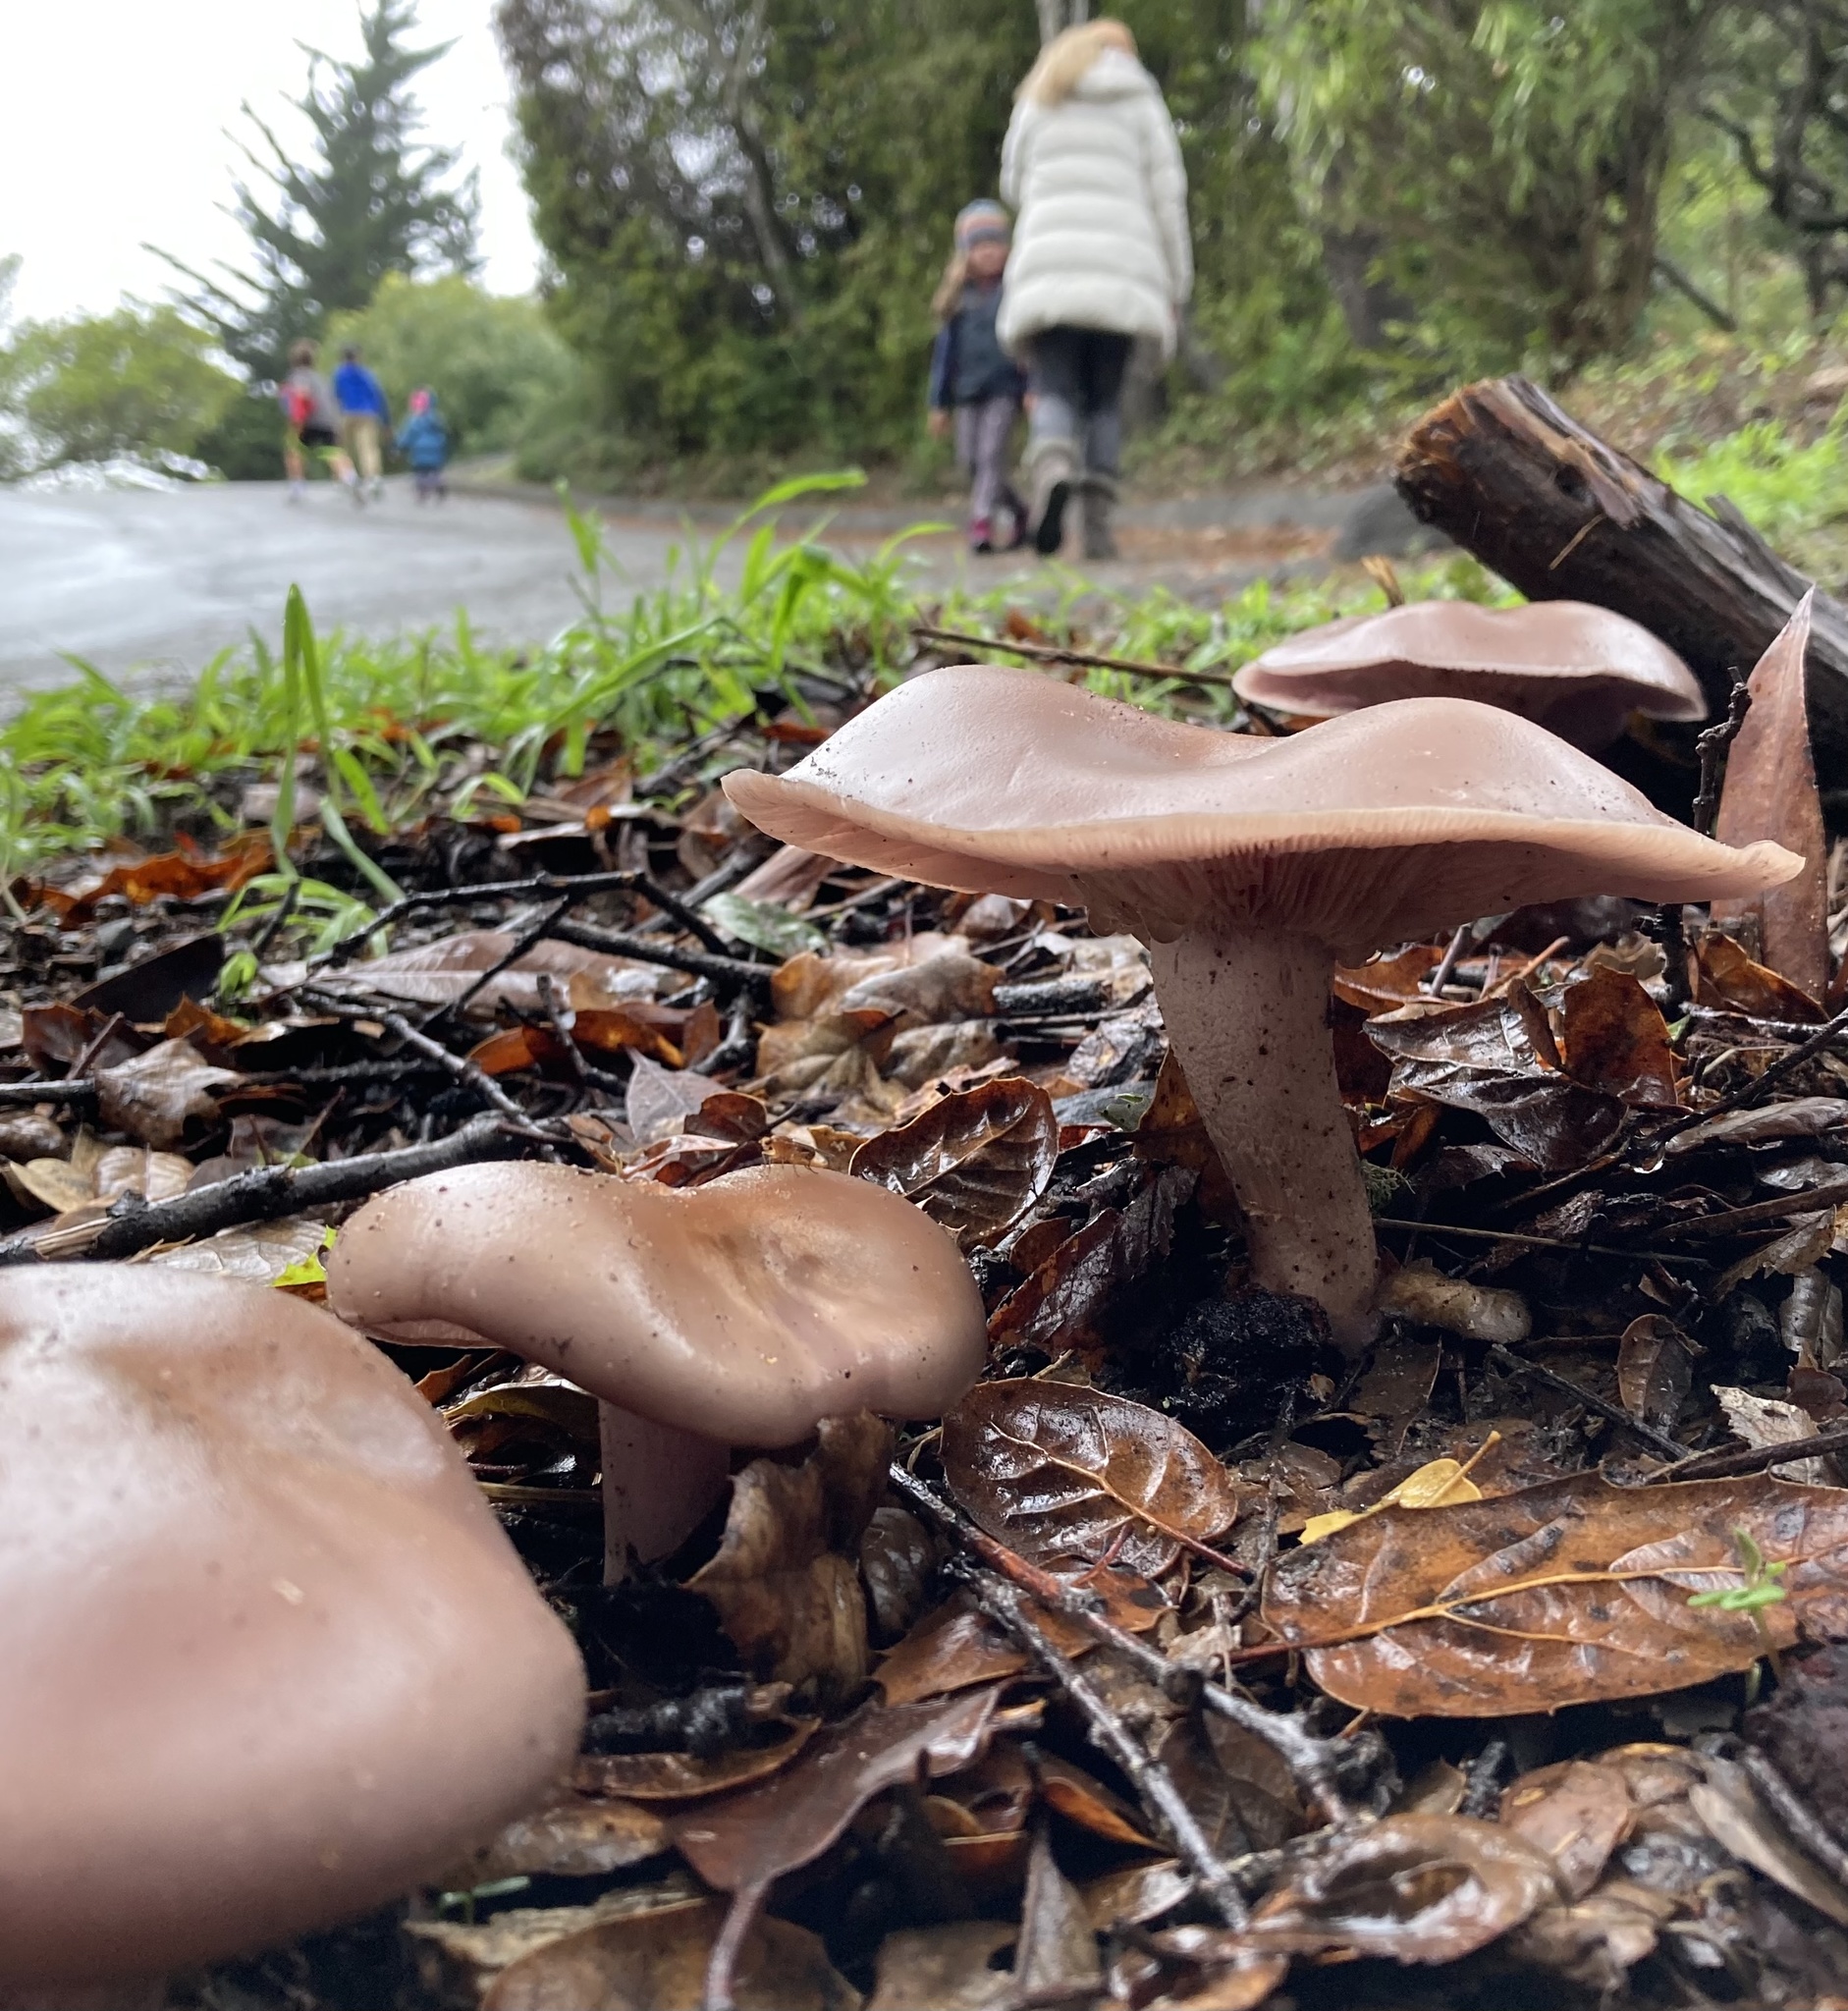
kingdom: Fungi
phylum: Basidiomycota
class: Agaricomycetes
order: Agaricales
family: Tricholomataceae
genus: Collybia
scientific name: Collybia
